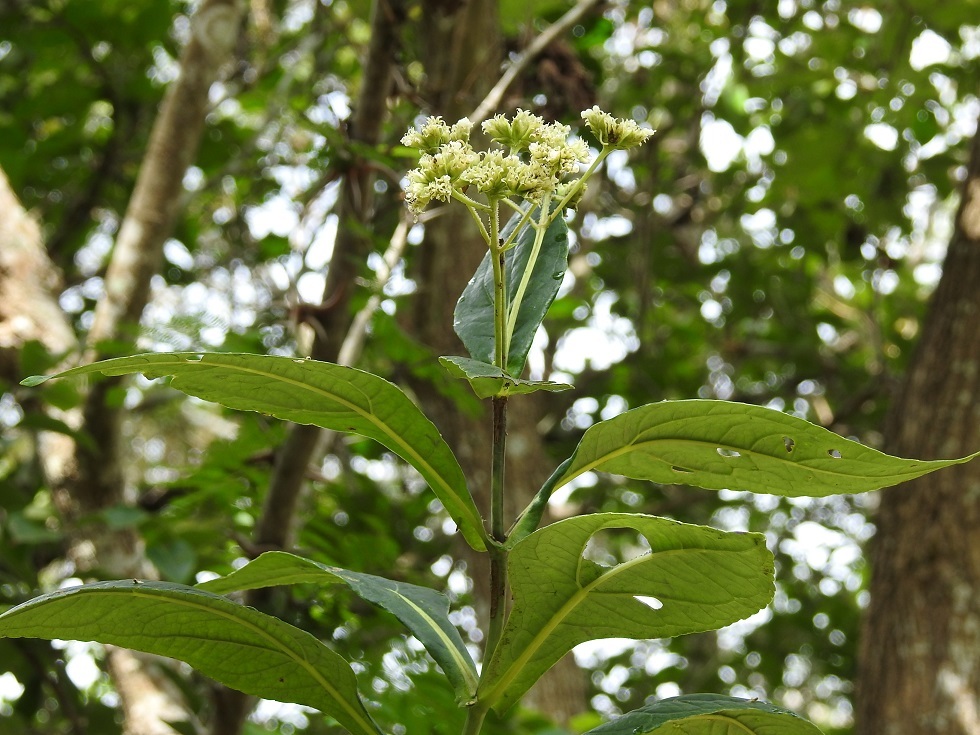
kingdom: Plantae
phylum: Tracheophyta
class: Magnoliopsida
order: Asterales
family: Asteraceae
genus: Desmanthodium
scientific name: Desmanthodium perfoliatum
